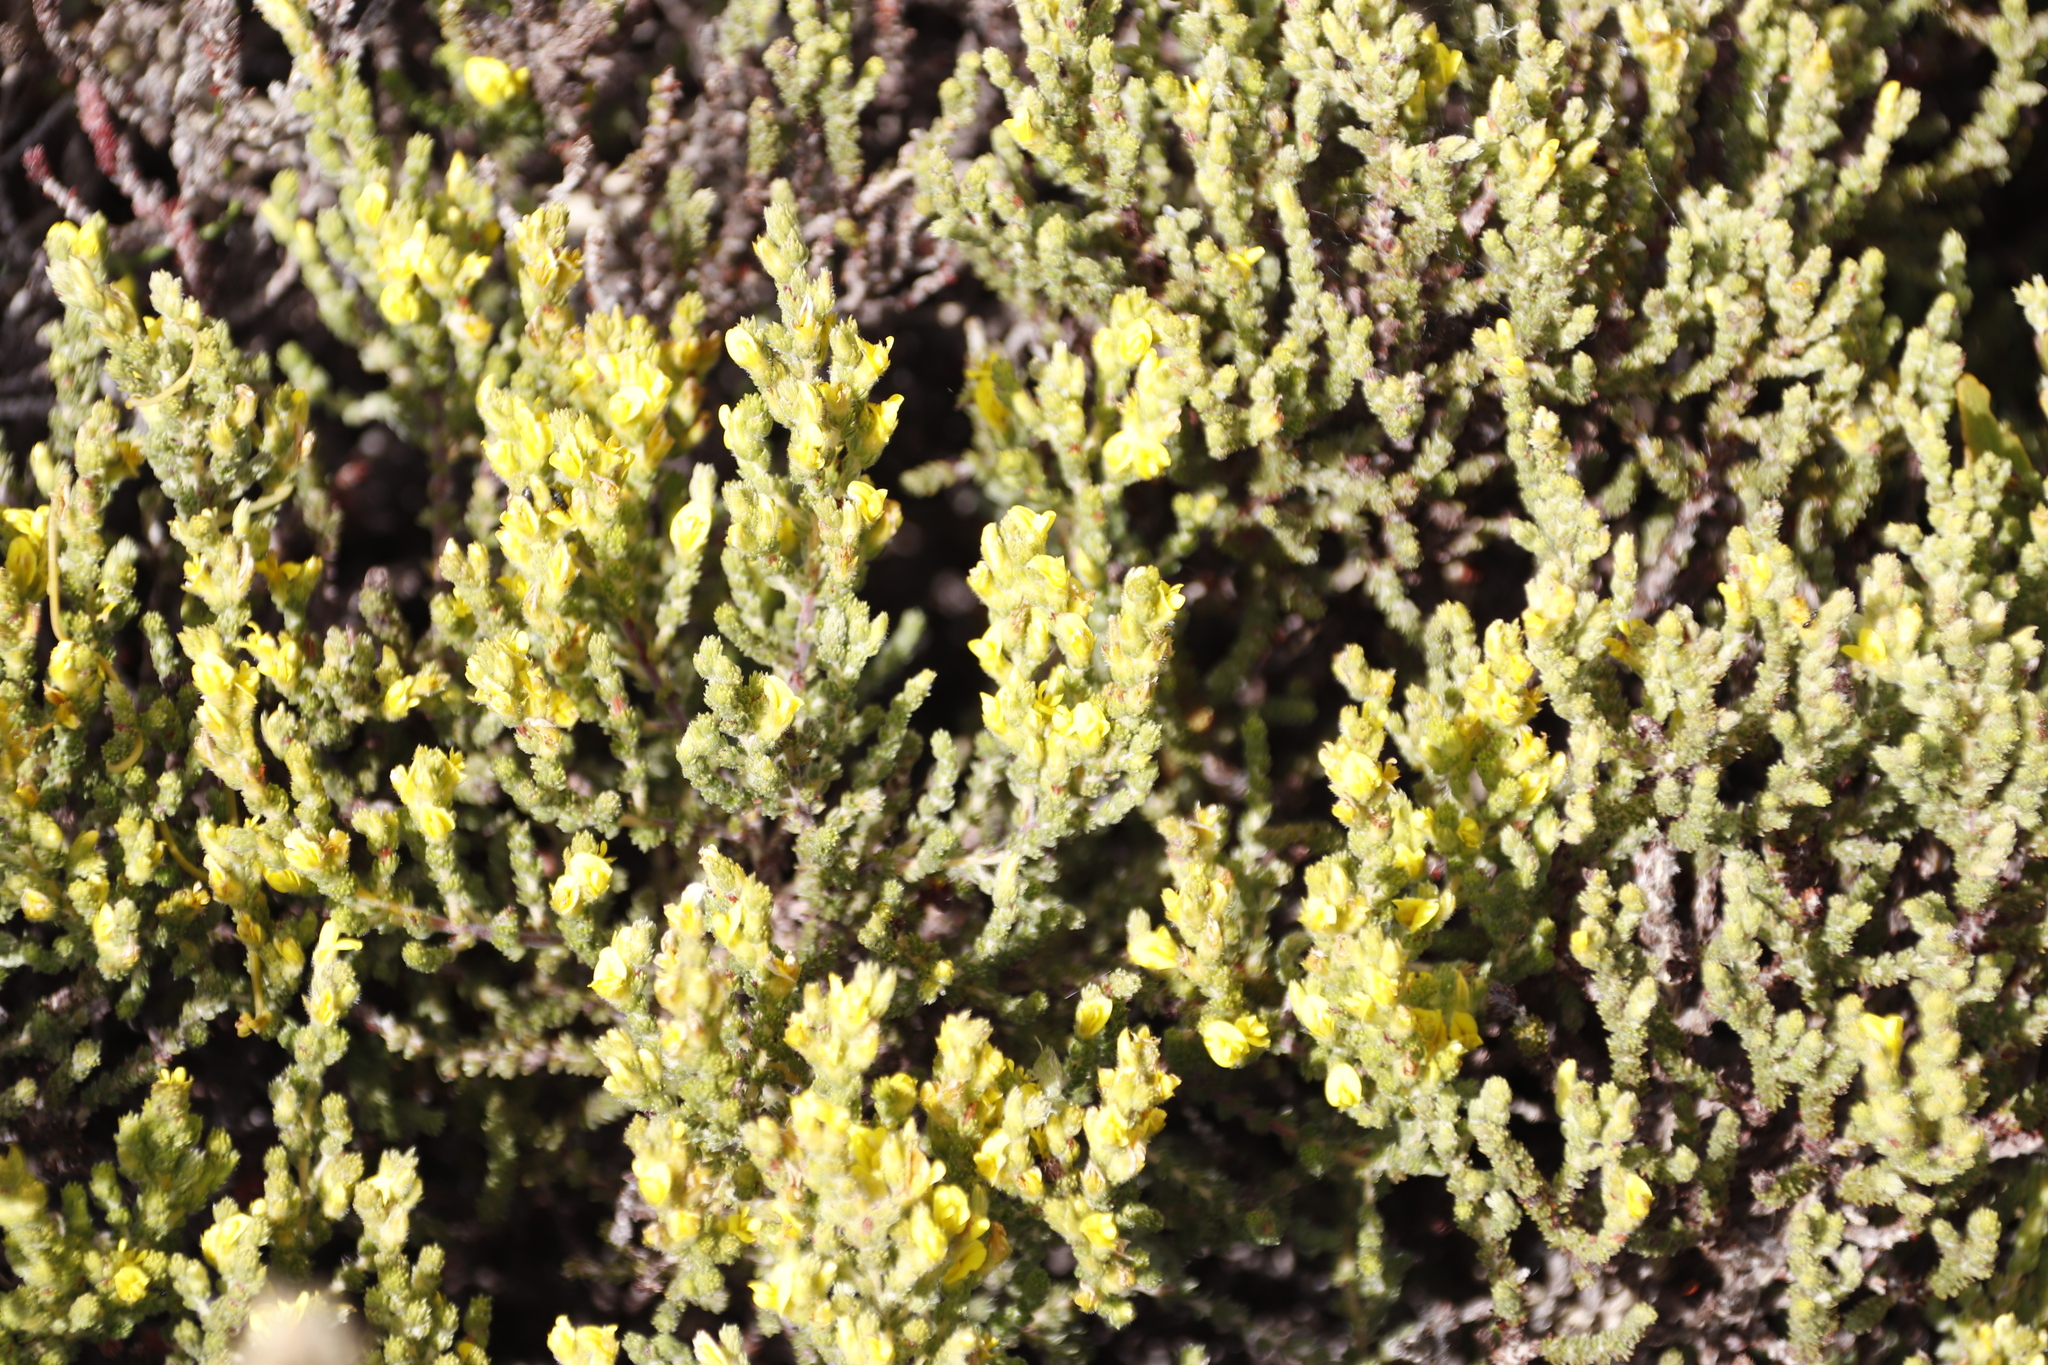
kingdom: Plantae
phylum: Tracheophyta
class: Magnoliopsida
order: Fabales
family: Fabaceae
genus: Aspalathus
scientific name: Aspalathus ericifolia
